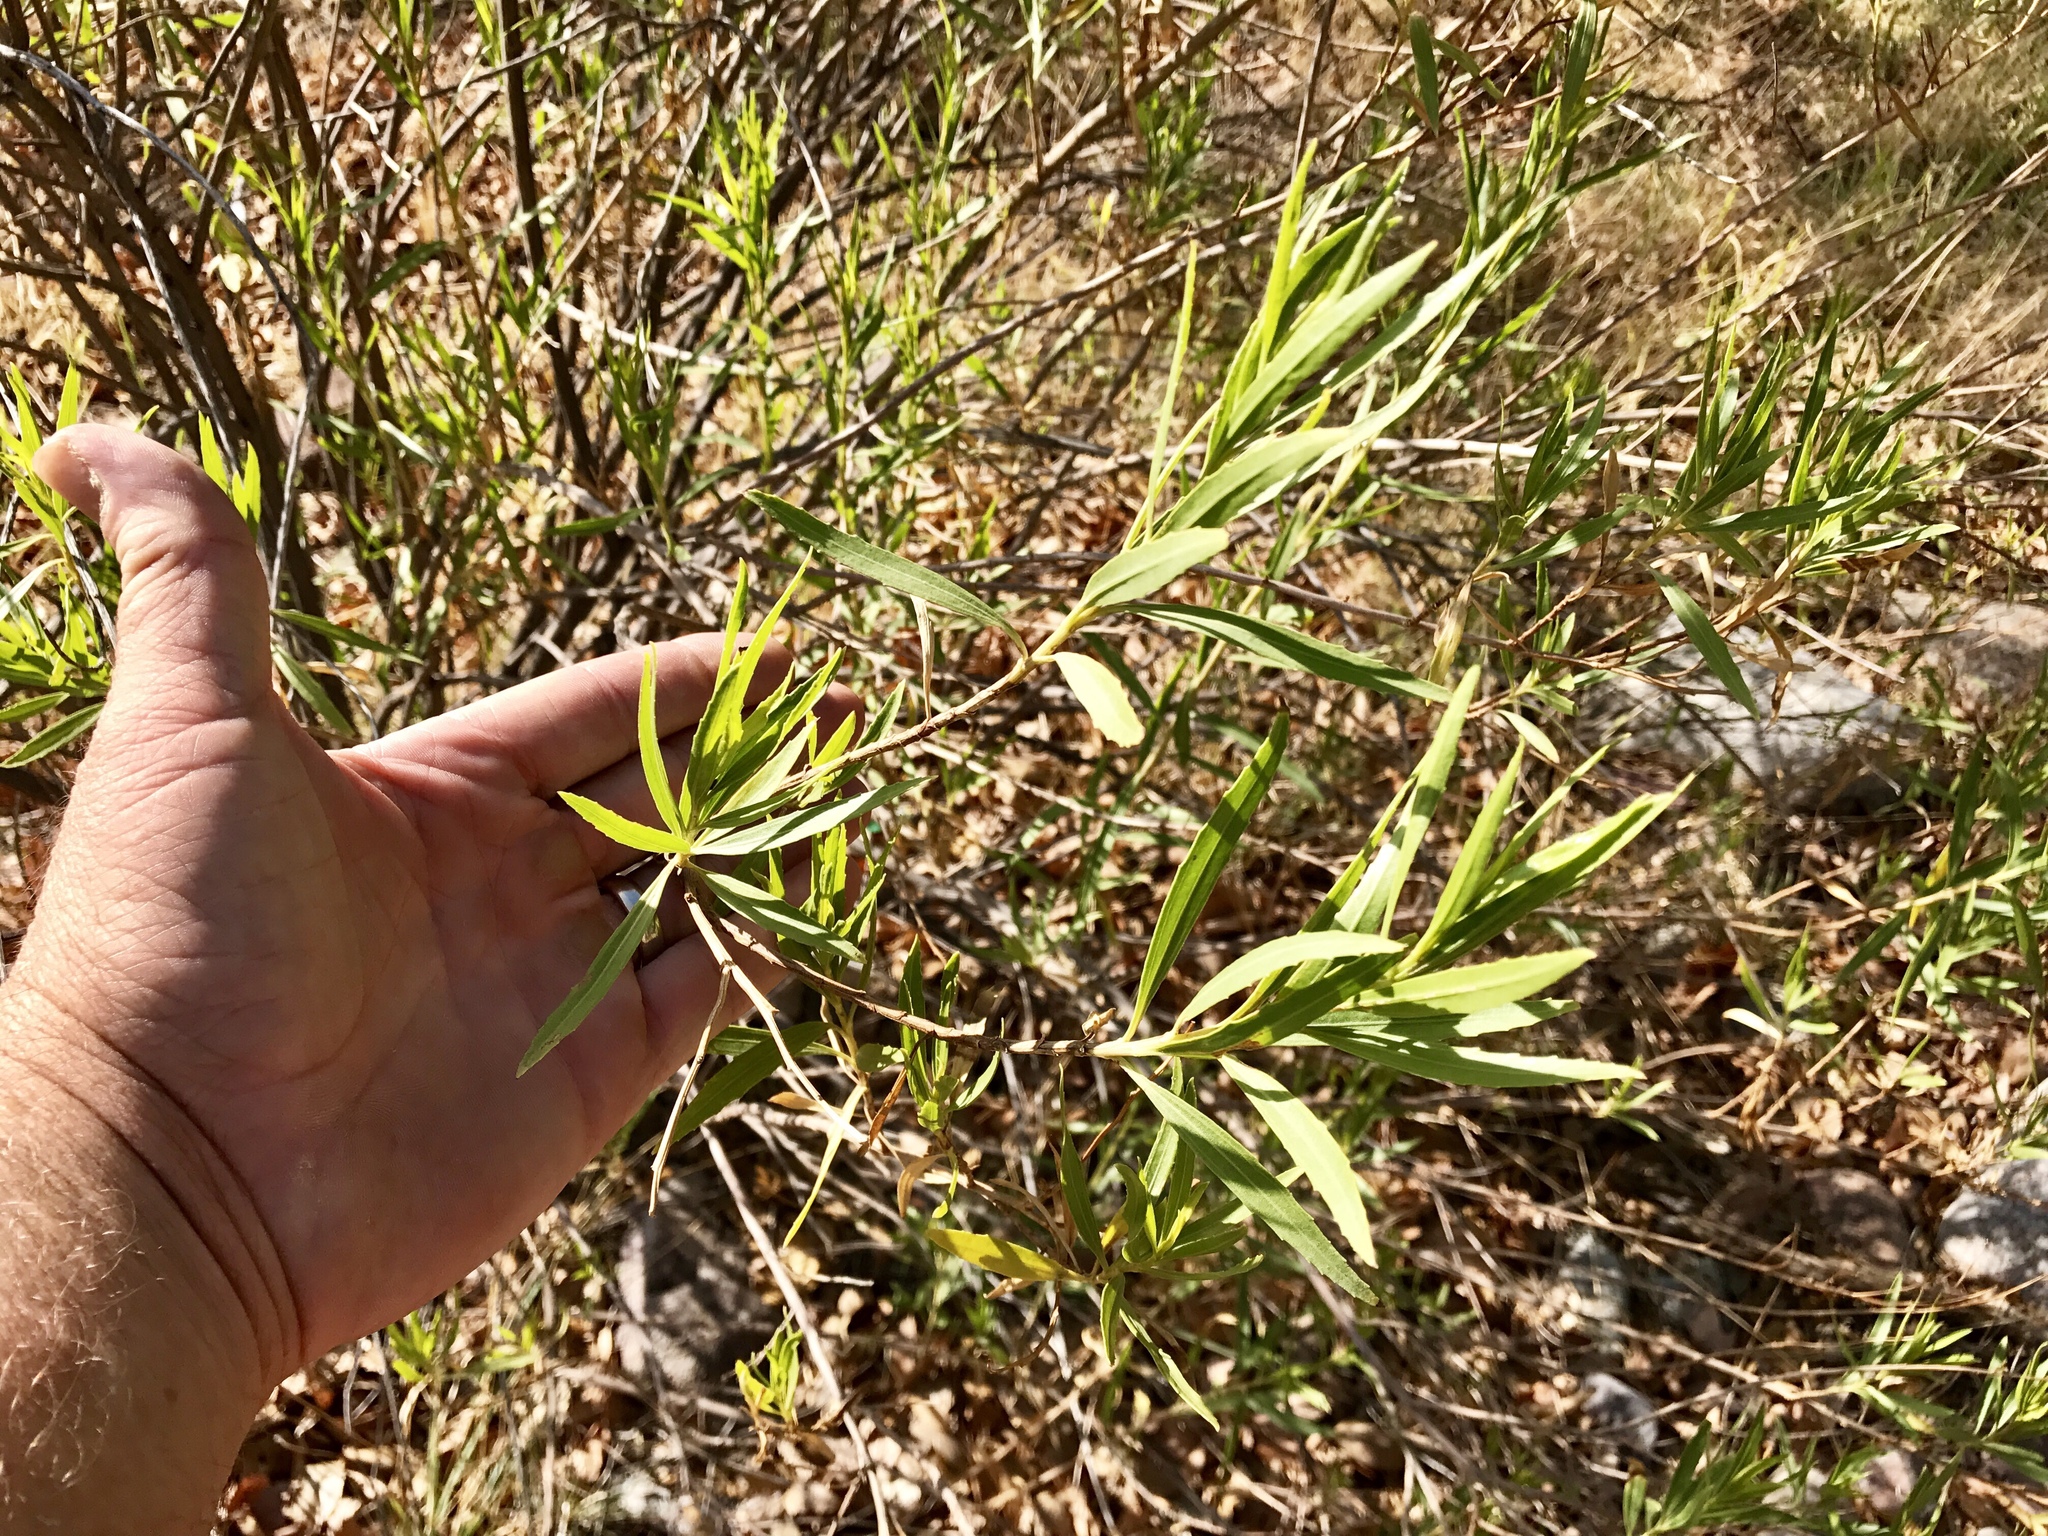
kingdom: Plantae
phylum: Tracheophyta
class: Magnoliopsida
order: Malpighiales
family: Salicaceae
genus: Salix
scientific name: Salix exigua
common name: Coyote willow
